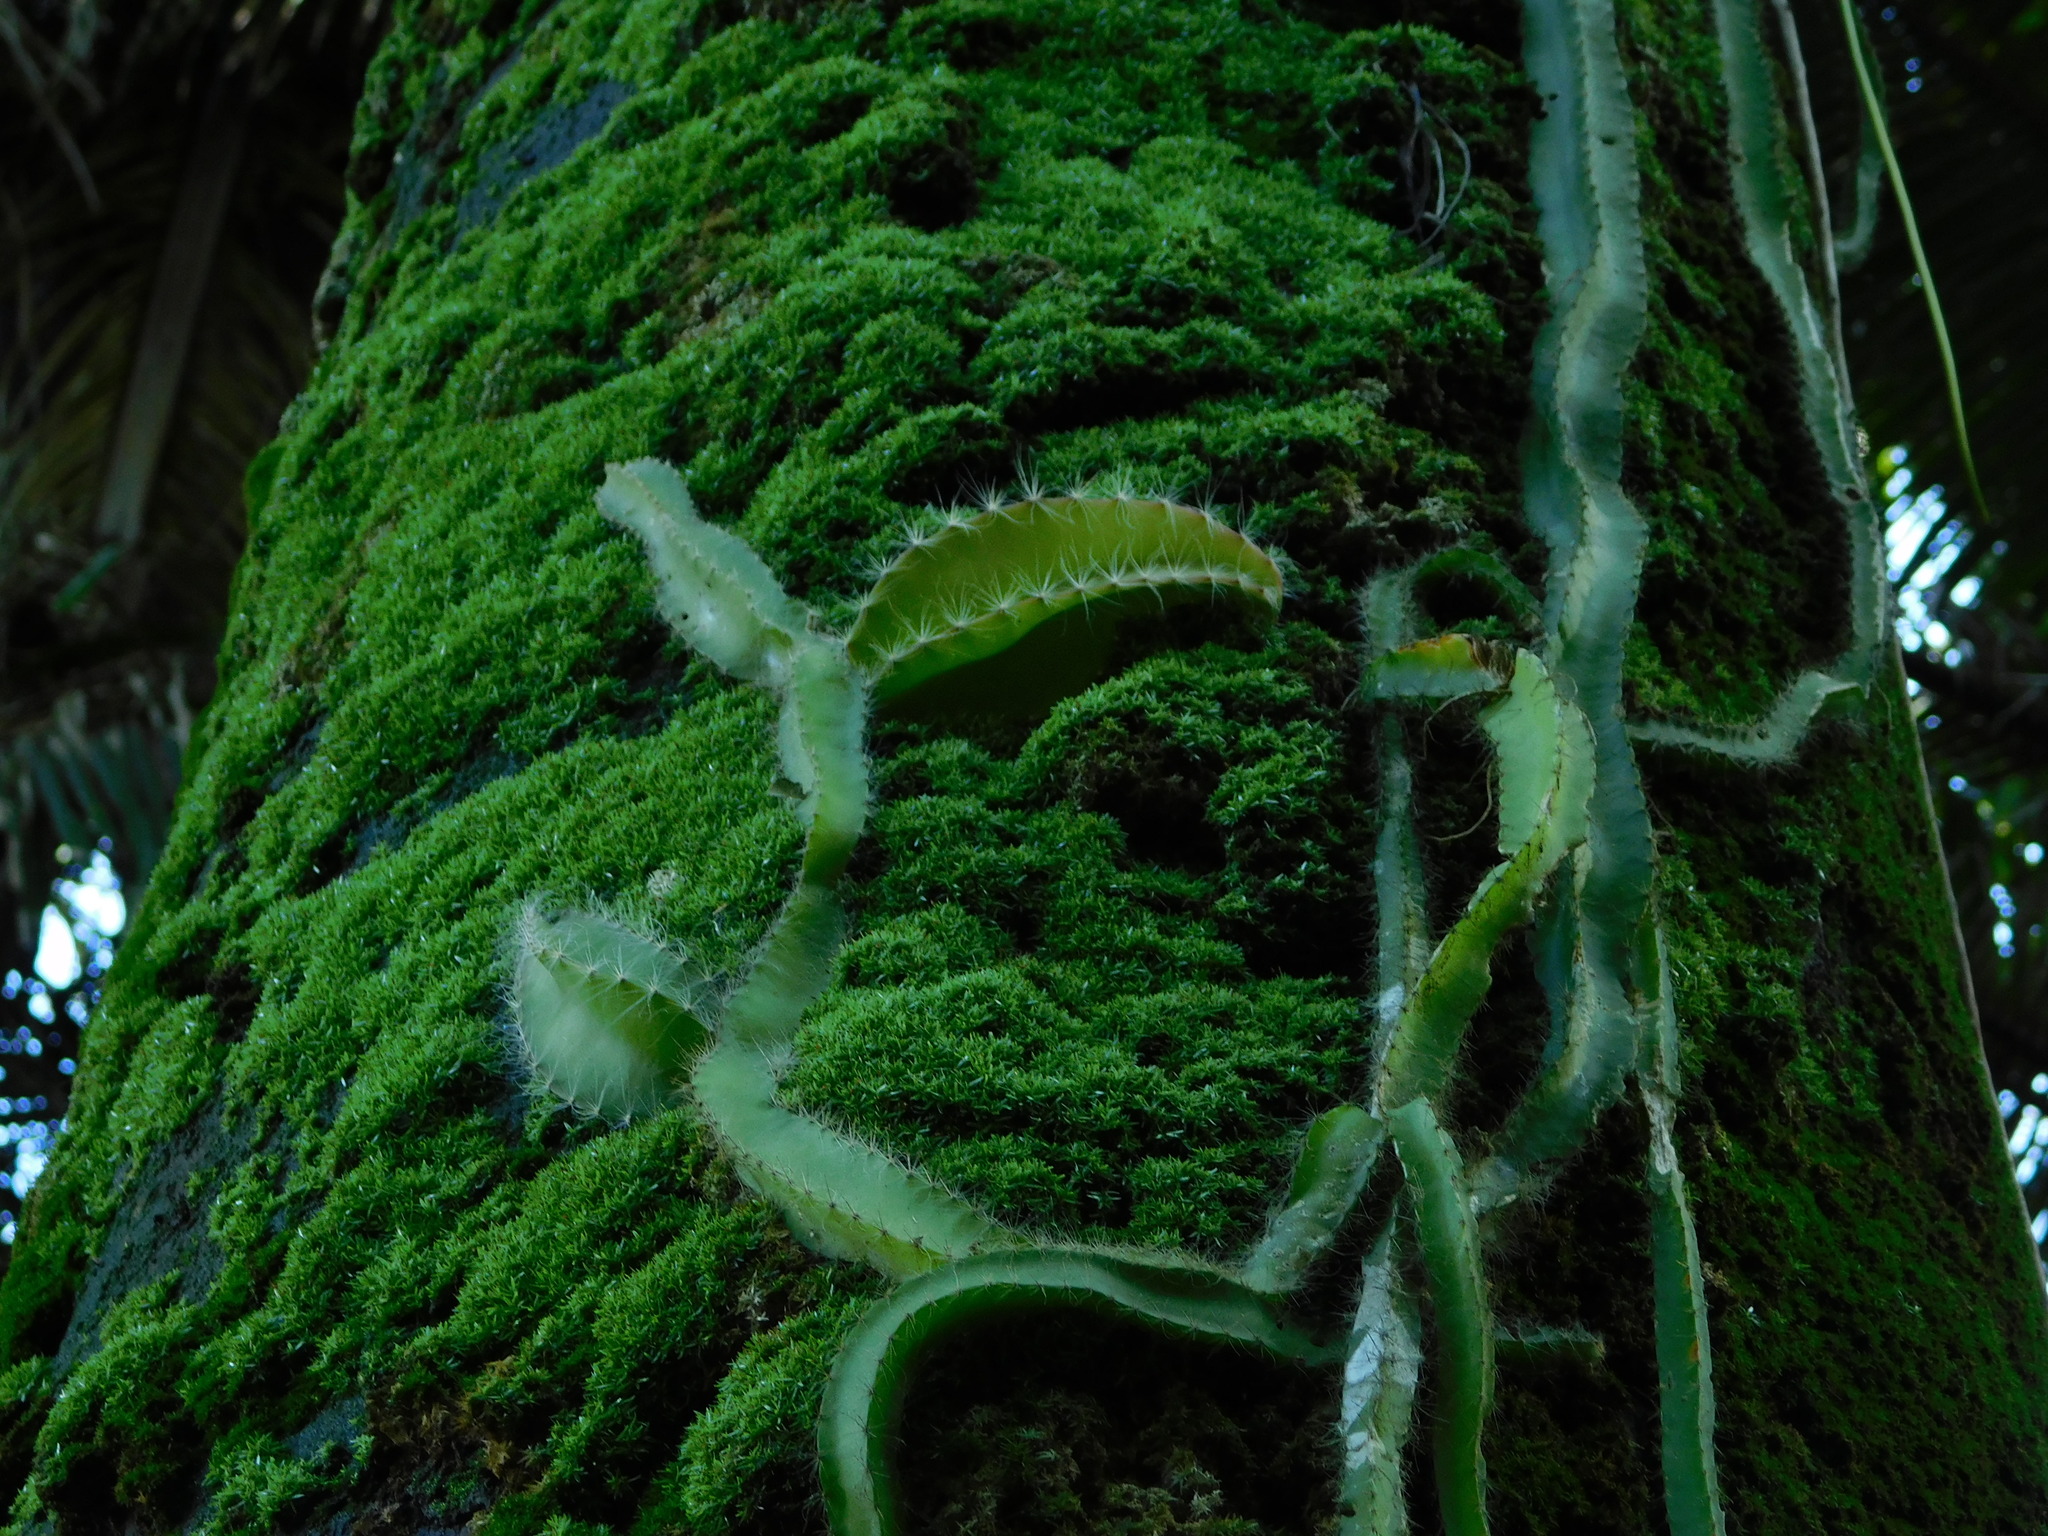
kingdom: Plantae
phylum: Tracheophyta
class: Magnoliopsida
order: Caryophyllales
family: Cactaceae
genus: Deamia
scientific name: Deamia testudo
